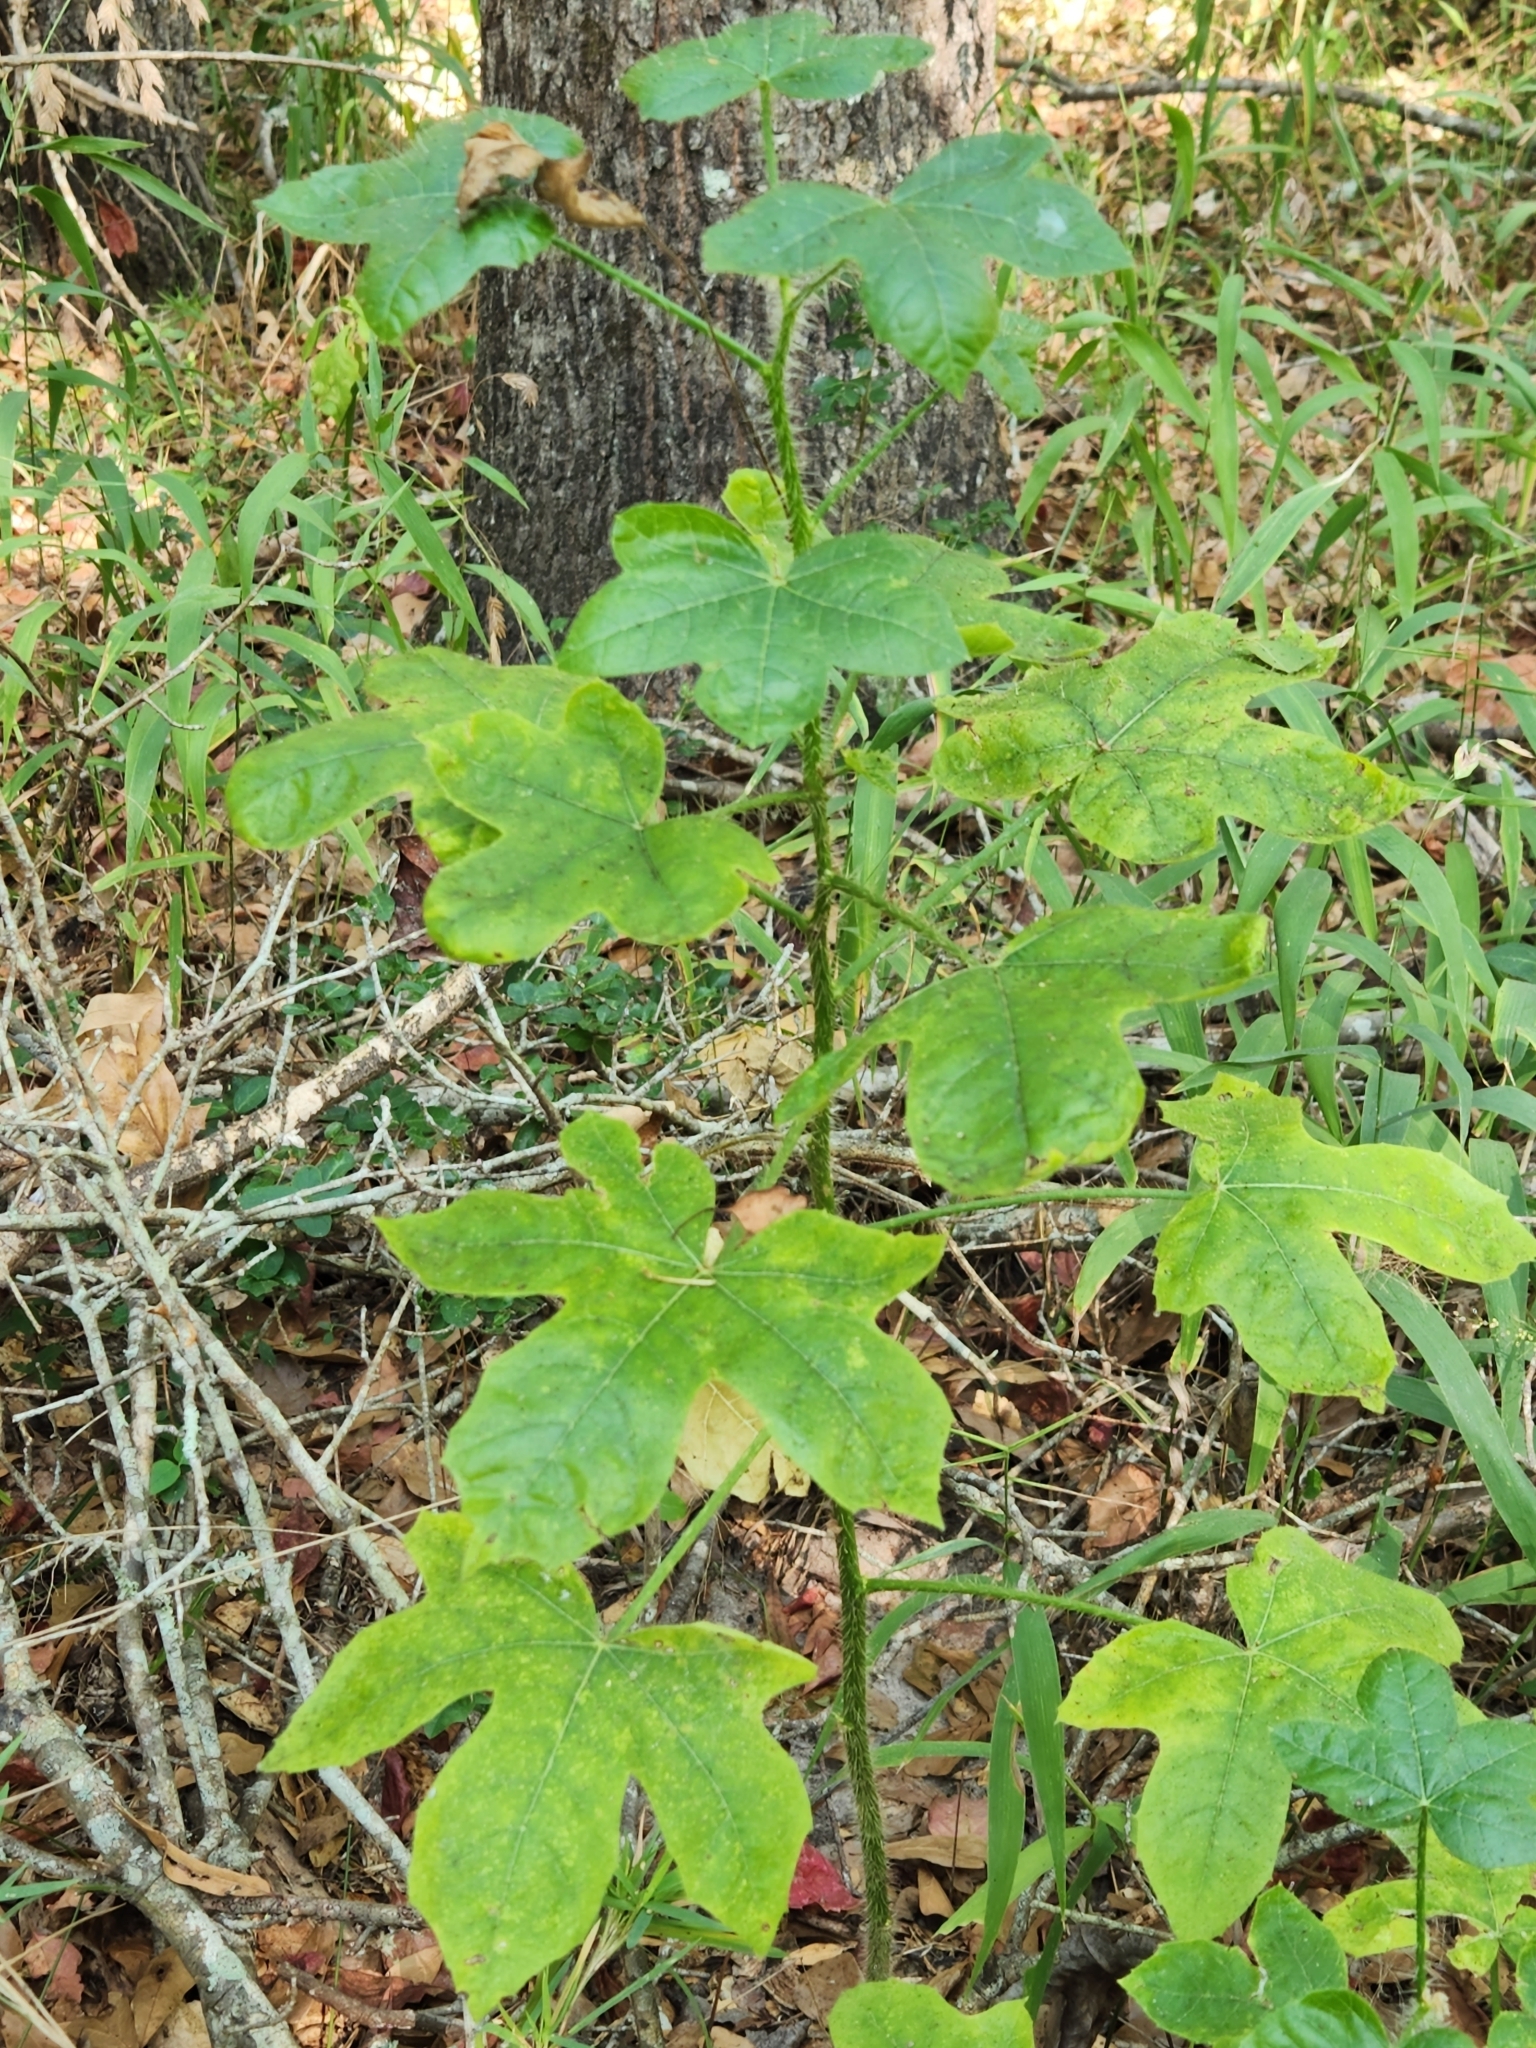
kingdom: Plantae
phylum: Tracheophyta
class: Magnoliopsida
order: Malpighiales
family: Euphorbiaceae
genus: Cnidoscolus
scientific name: Cnidoscolus texanus
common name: Texas bull-nettle
